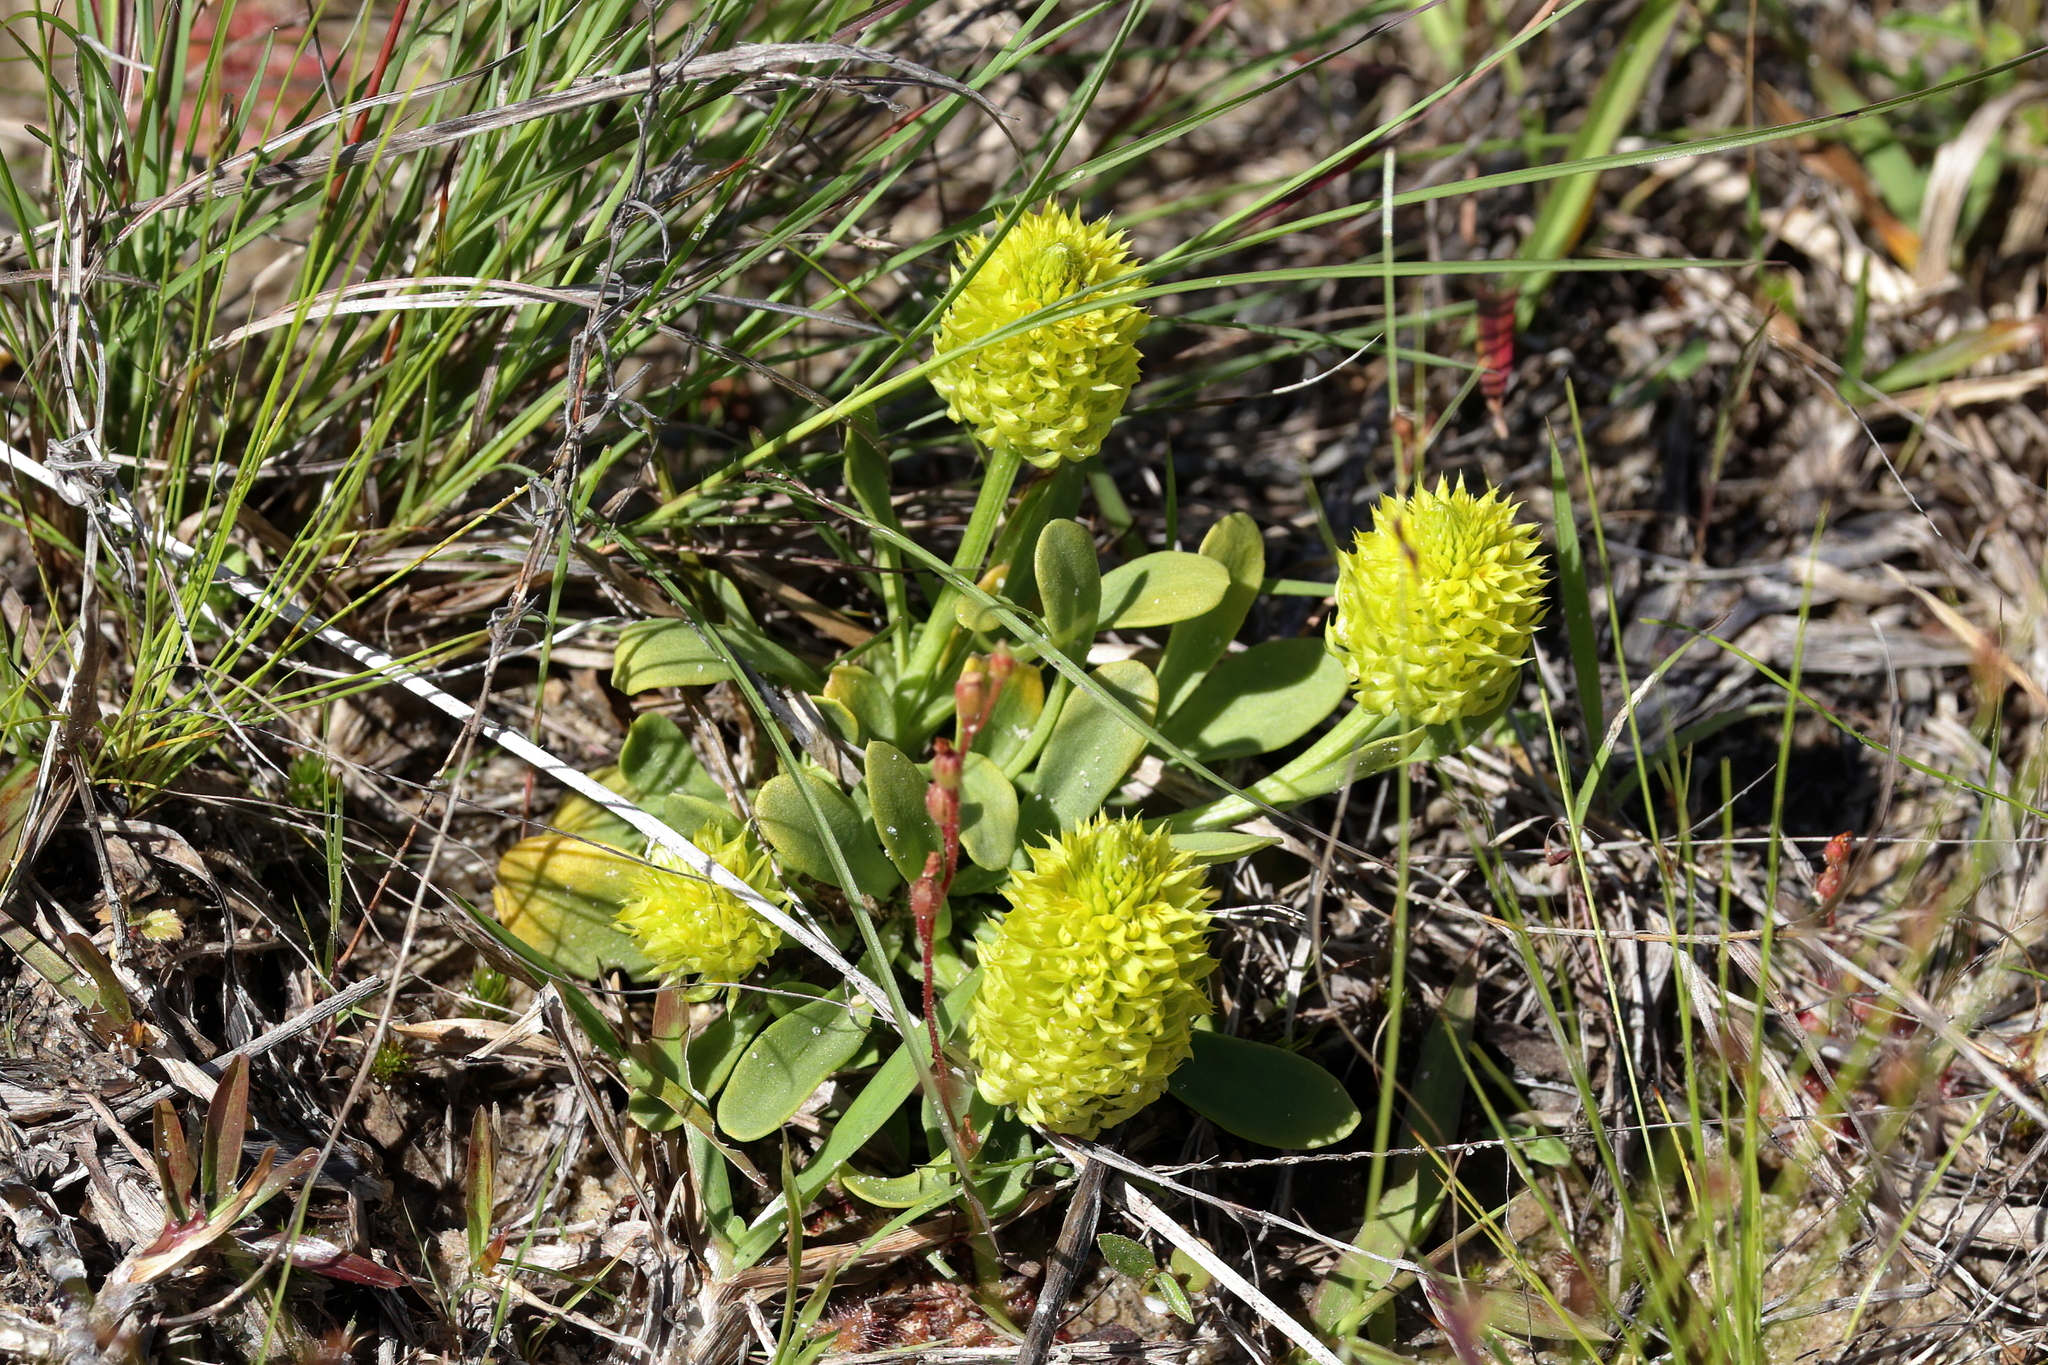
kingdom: Plantae
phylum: Tracheophyta
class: Magnoliopsida
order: Fabales
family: Polygalaceae
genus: Polygala
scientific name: Polygala nana
